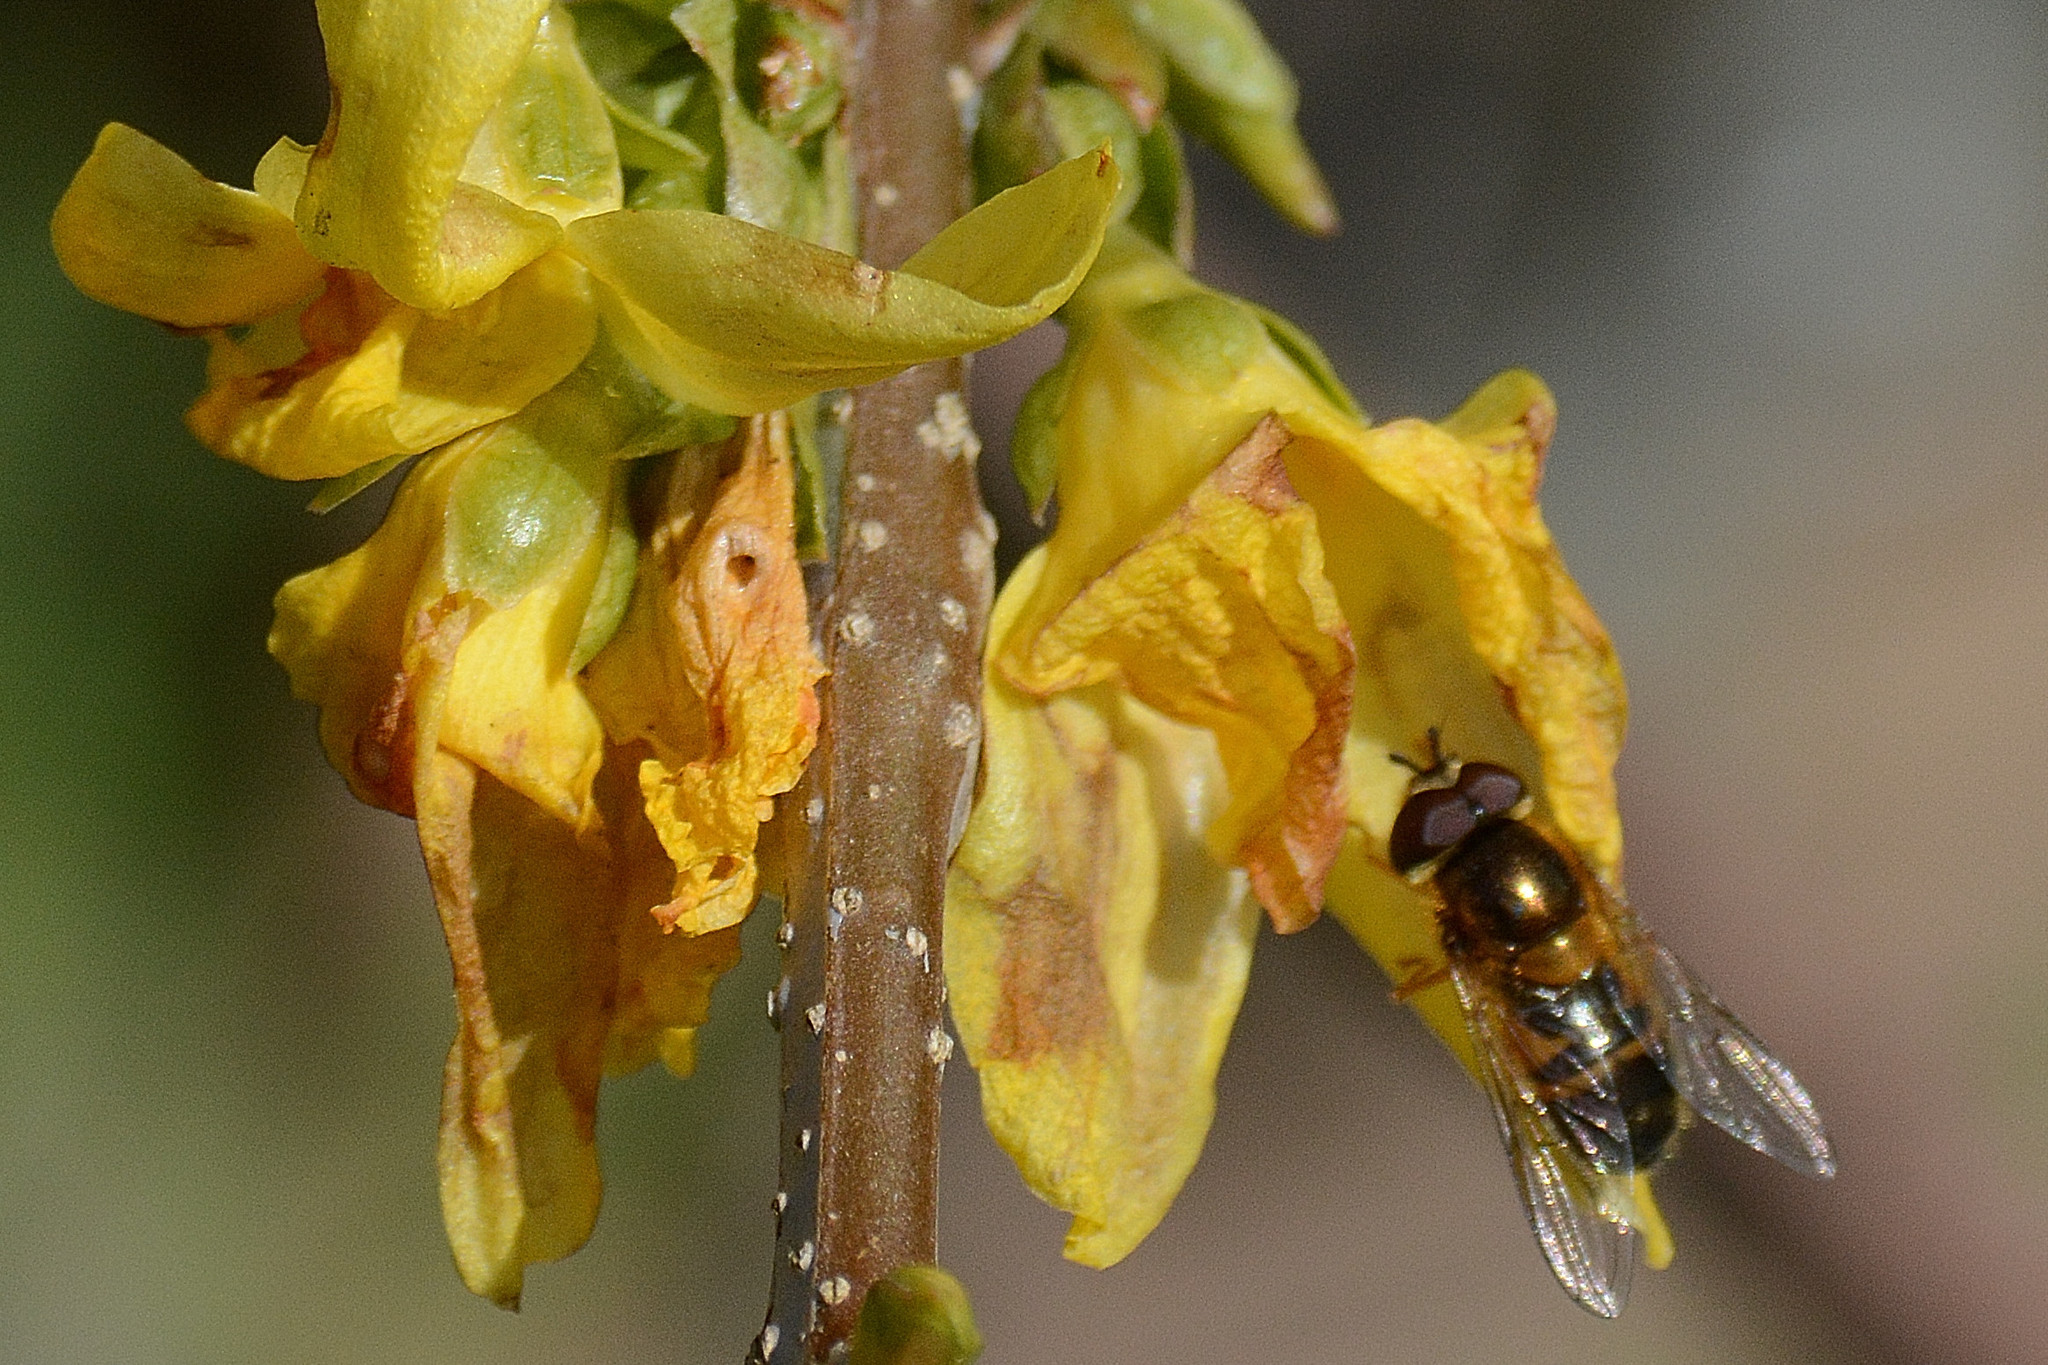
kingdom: Animalia
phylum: Arthropoda
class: Insecta
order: Diptera
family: Syrphidae
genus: Epistrophe
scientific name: Epistrophe eligans
